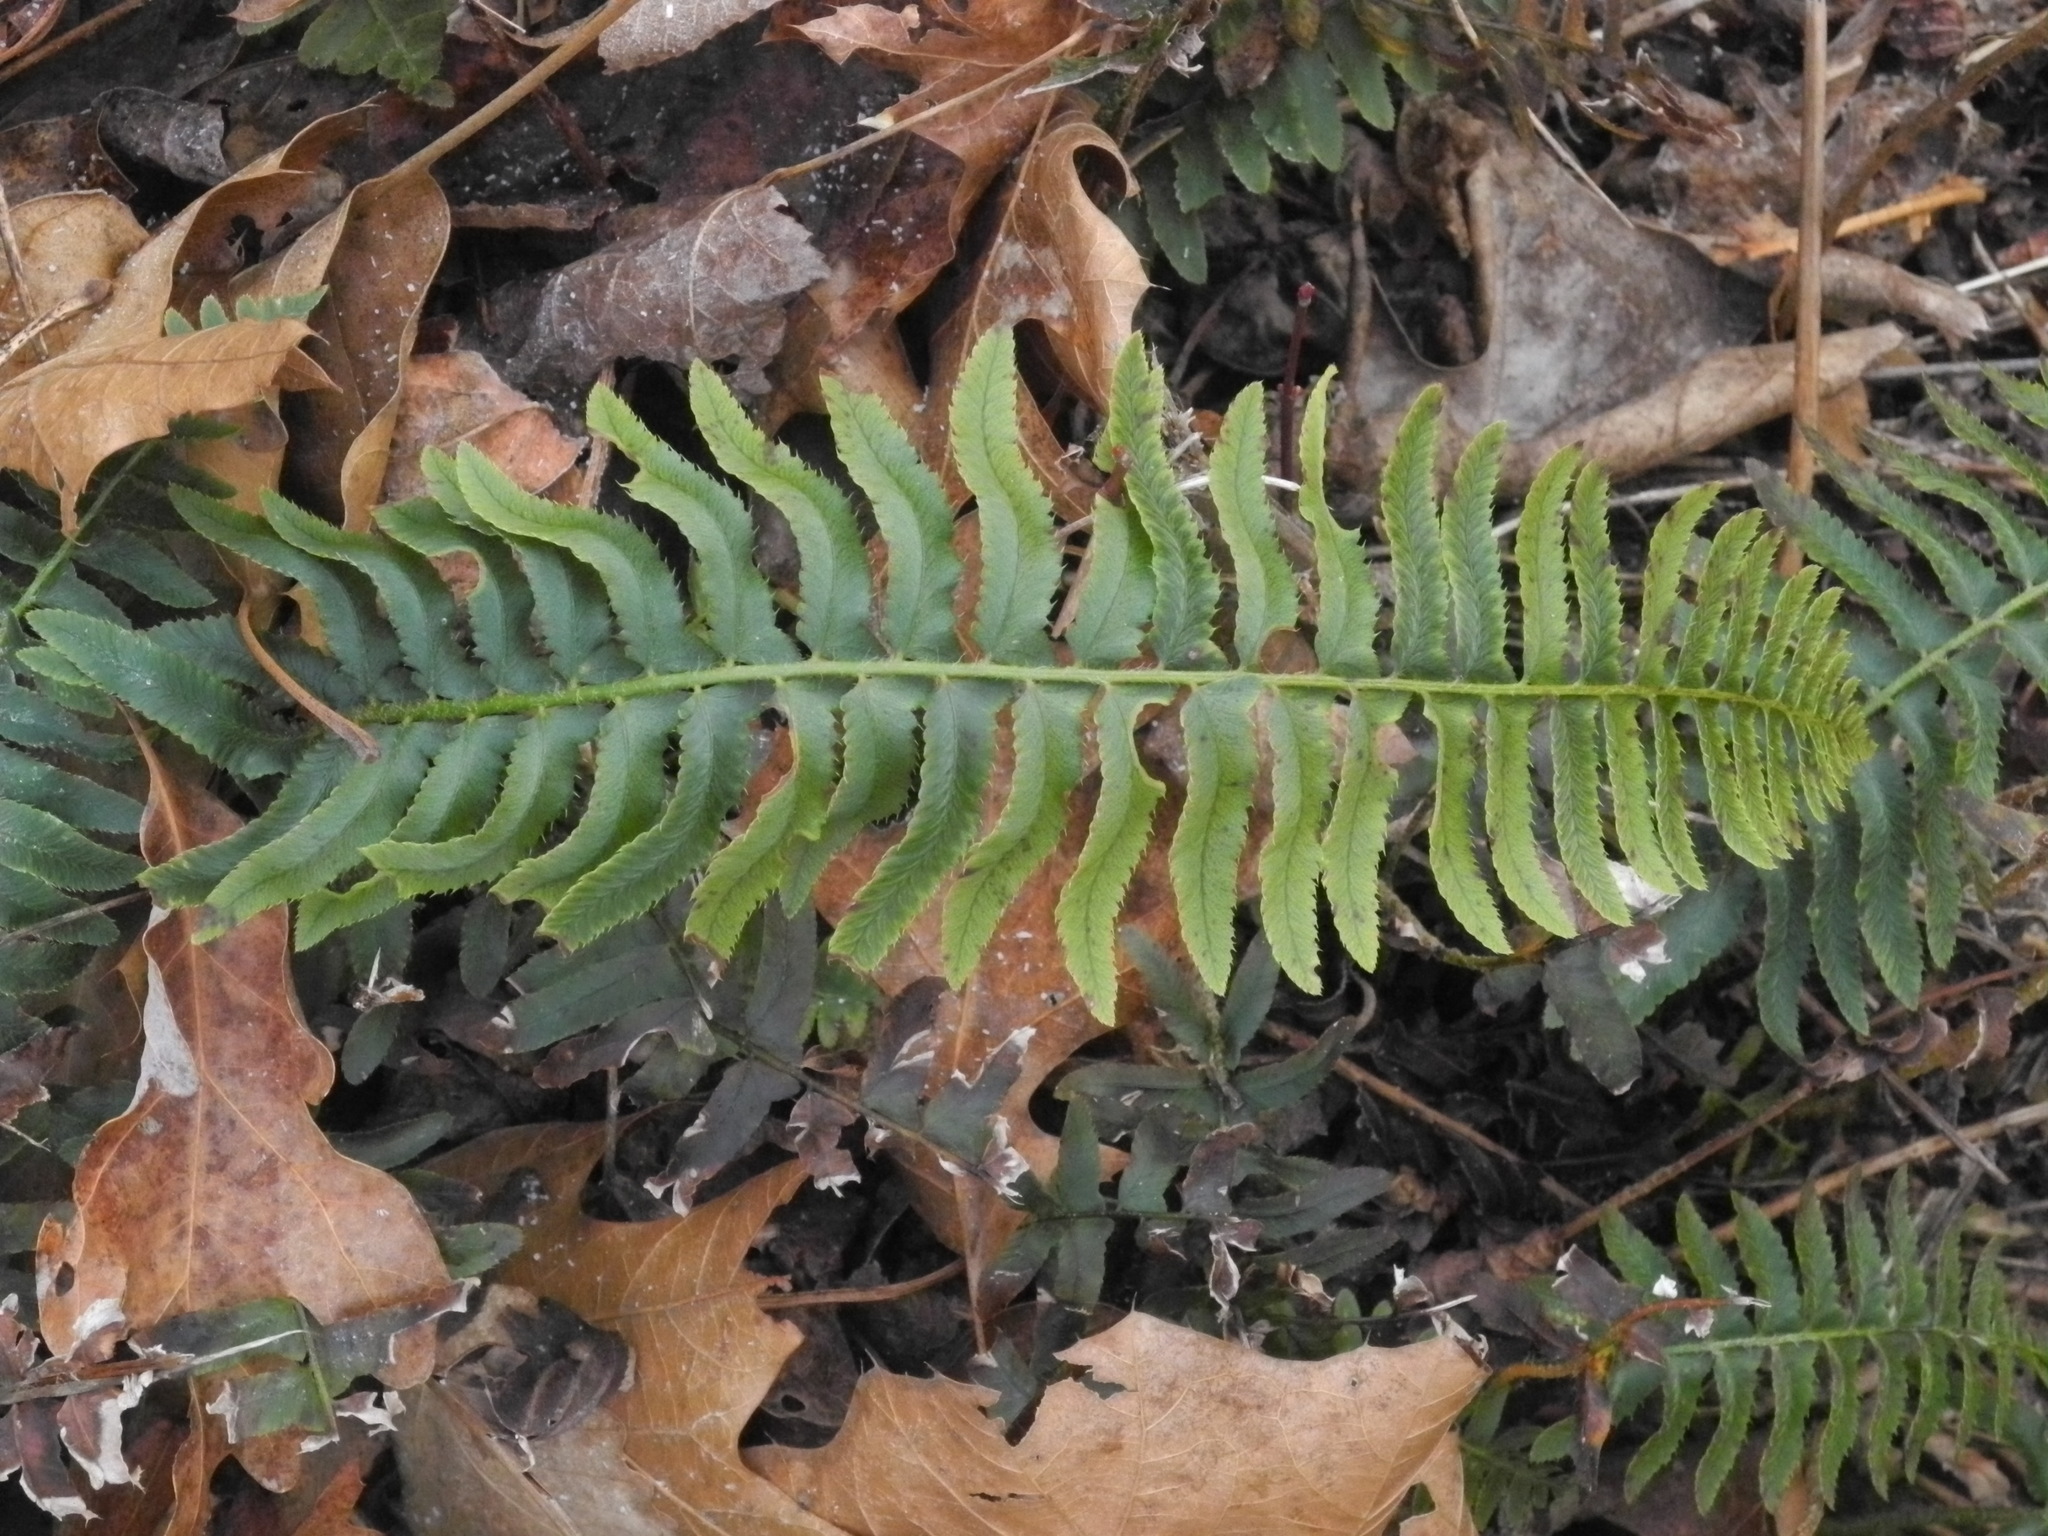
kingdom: Plantae
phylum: Tracheophyta
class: Polypodiopsida
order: Polypodiales
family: Dryopteridaceae
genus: Polystichum
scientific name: Polystichum acrostichoides
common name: Christmas fern
